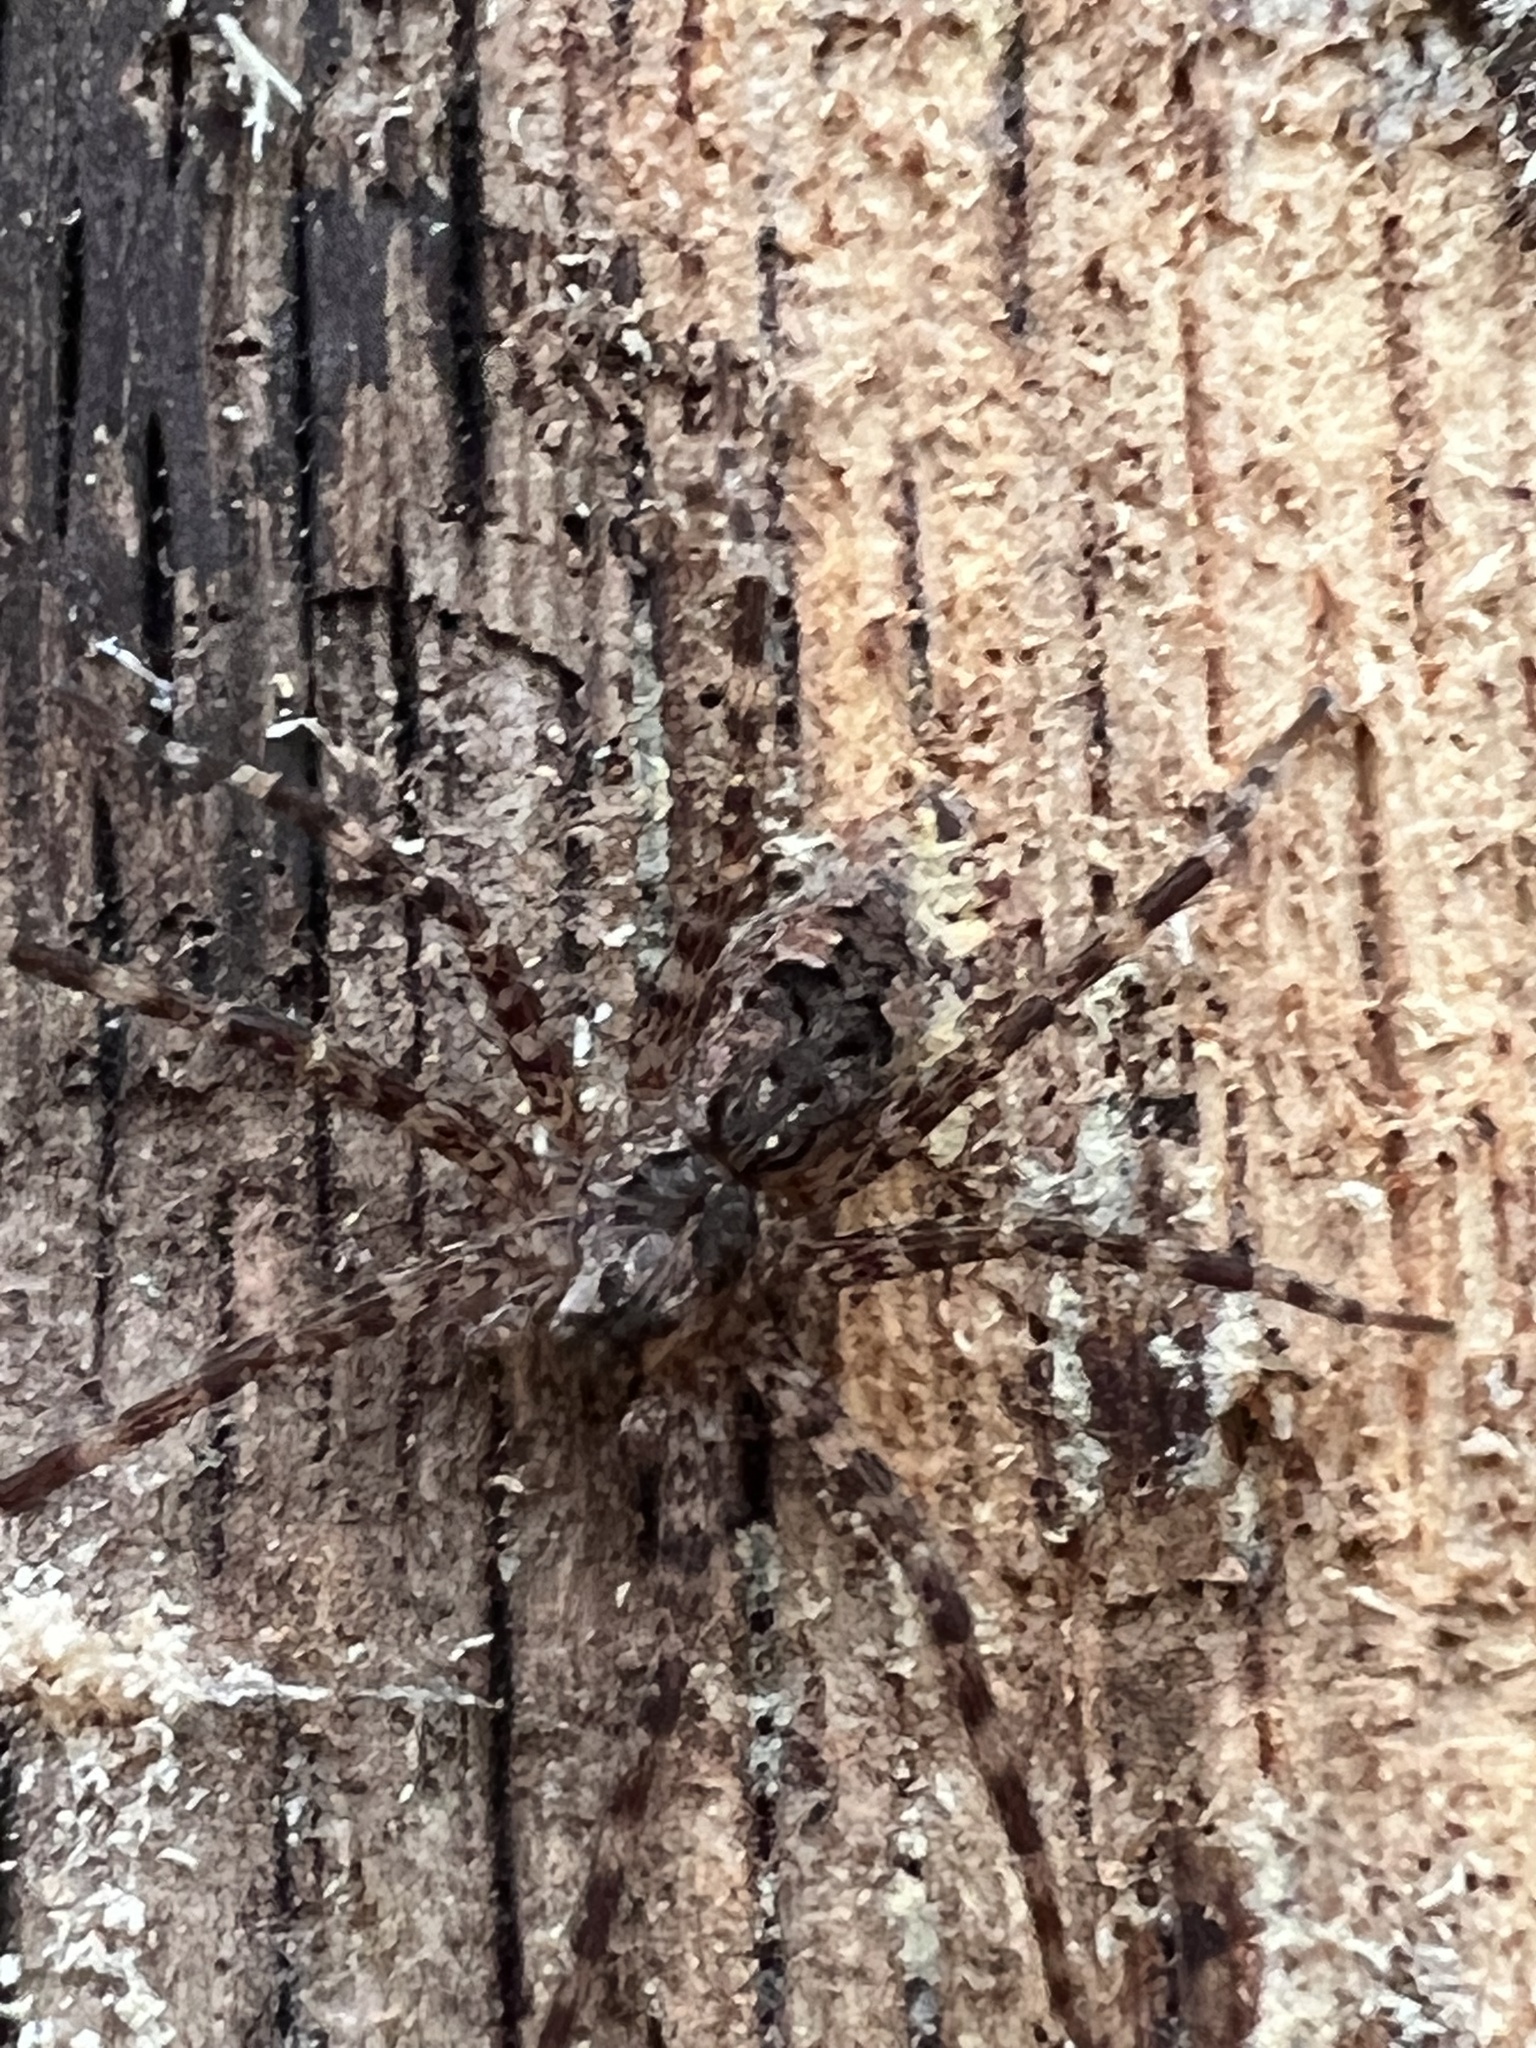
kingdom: Animalia
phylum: Arthropoda
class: Arachnida
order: Araneae
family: Pisauridae
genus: Dolomedes
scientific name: Dolomedes tenebrosus
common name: Dark fishing spider
